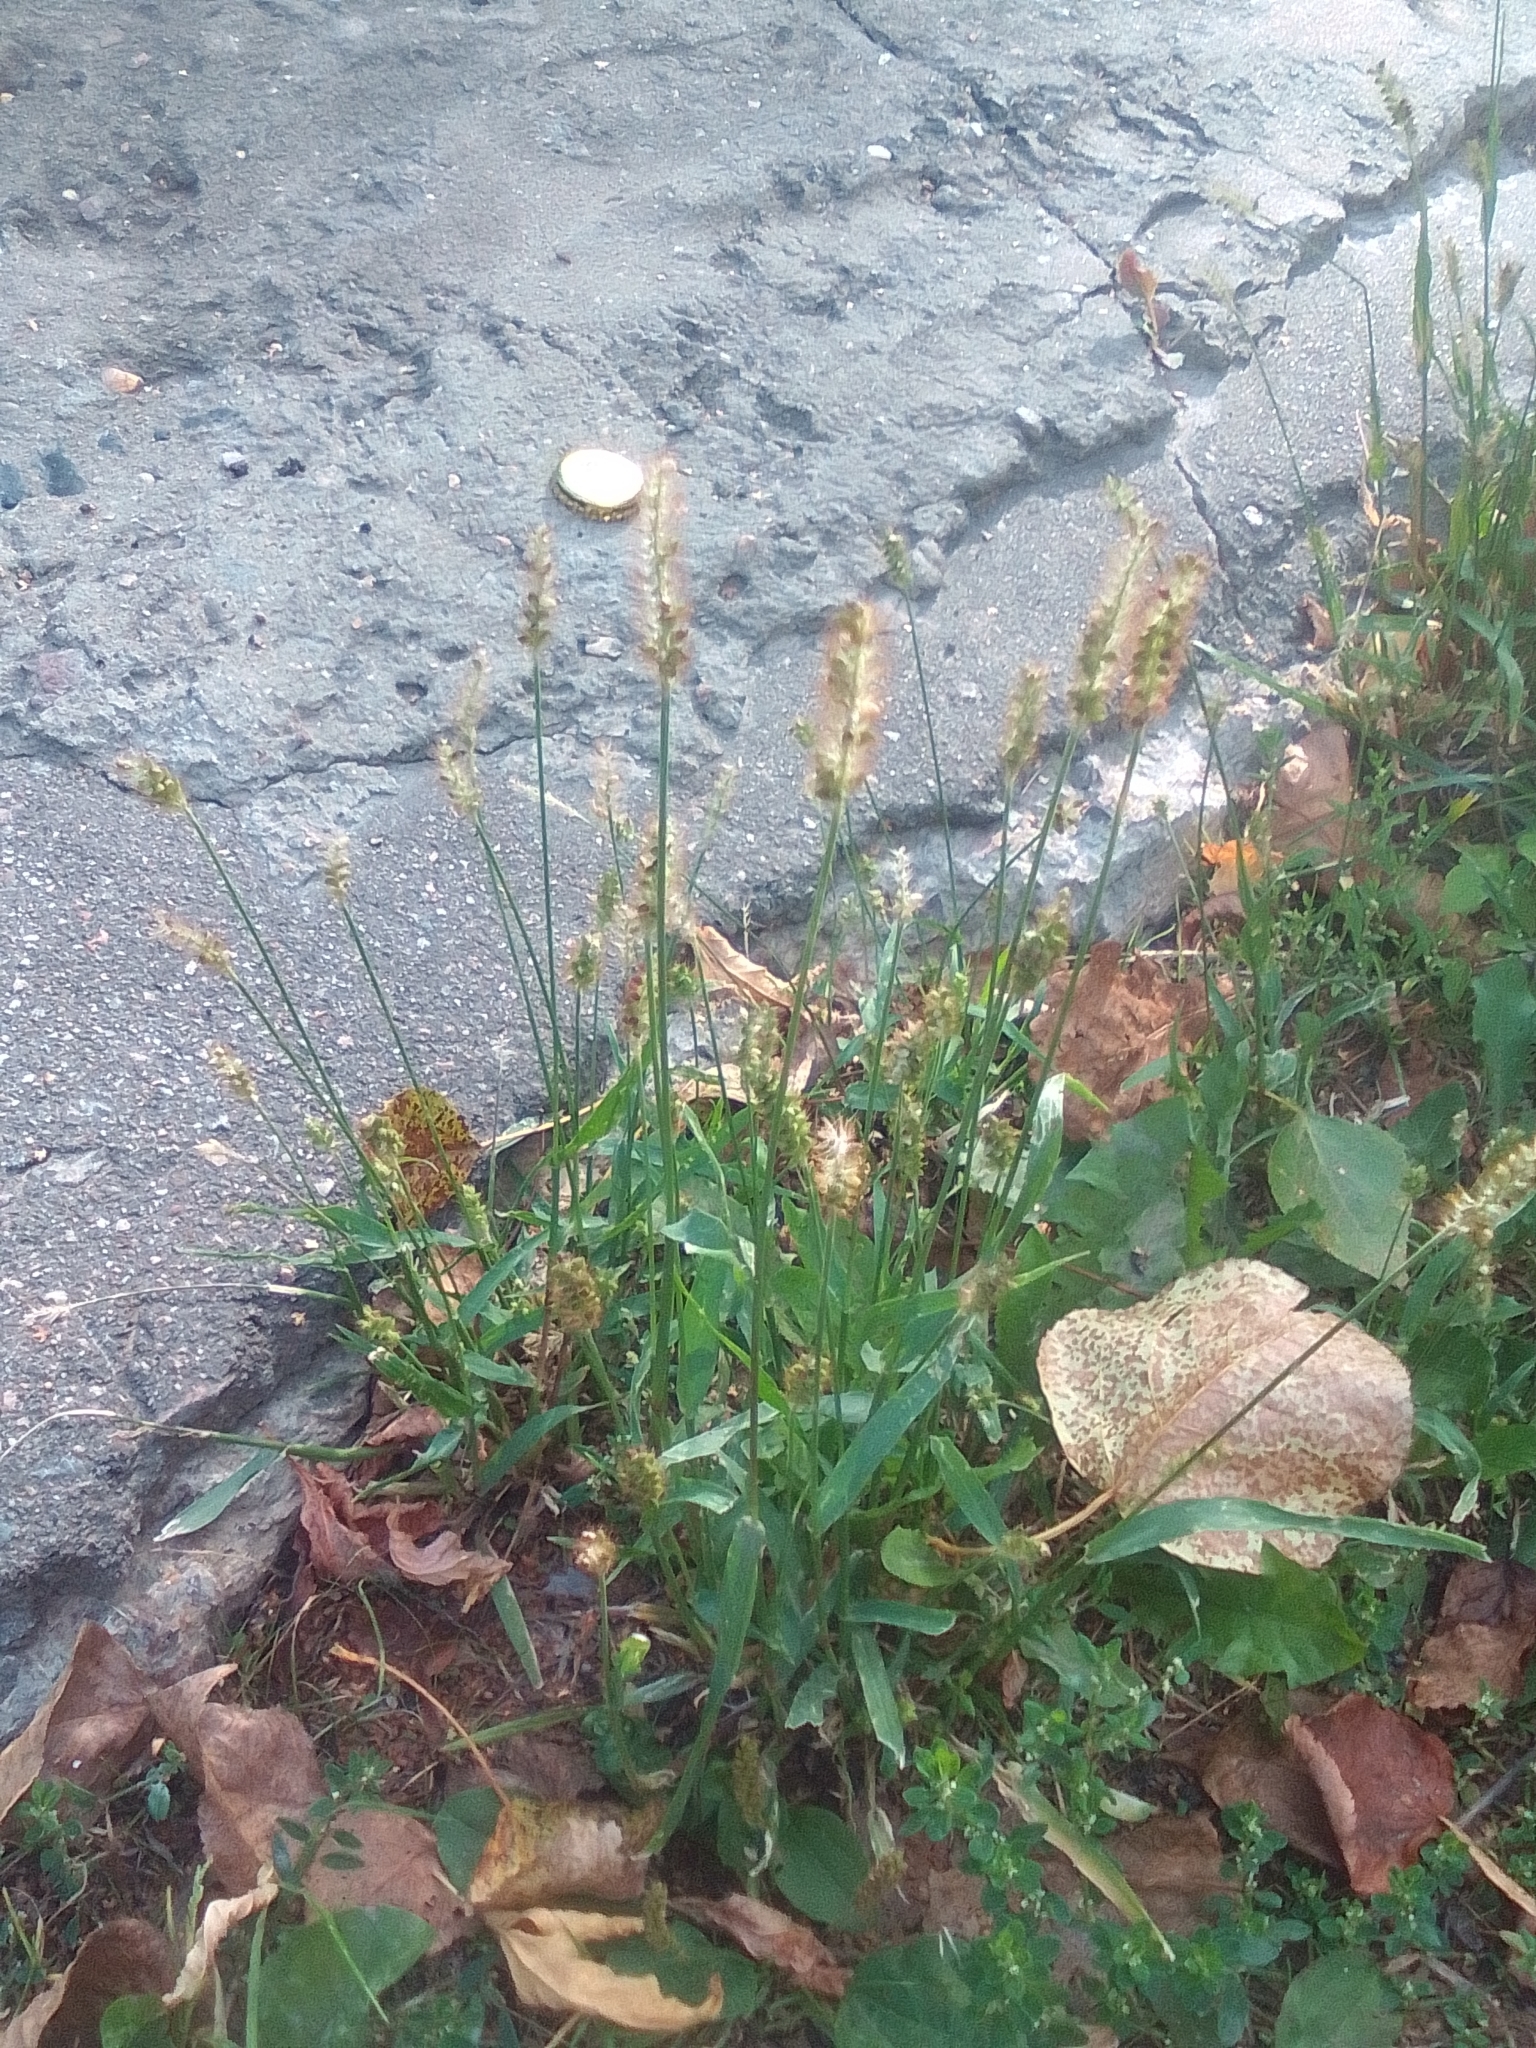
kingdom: Plantae
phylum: Tracheophyta
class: Liliopsida
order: Poales
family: Poaceae
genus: Setaria
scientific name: Setaria pumila
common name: Yellow bristle-grass
